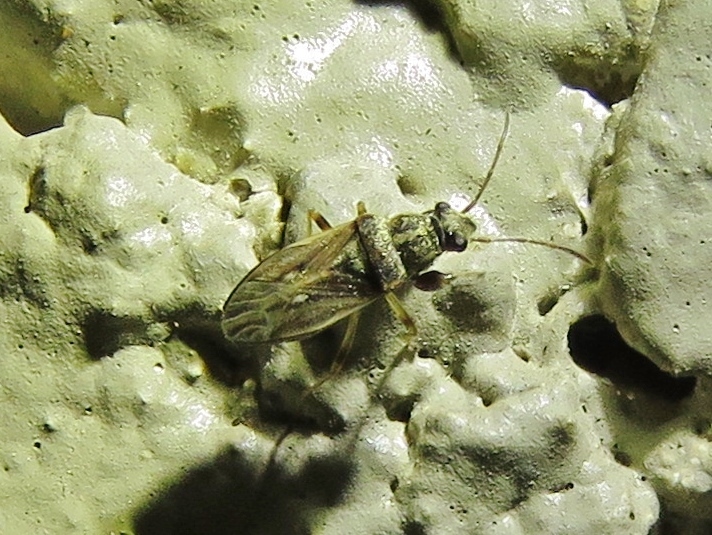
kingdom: Animalia
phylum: Arthropoda
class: Insecta
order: Hemiptera
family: Rhyparochromidae
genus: Pseudopachybrachius
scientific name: Pseudopachybrachius basalis
